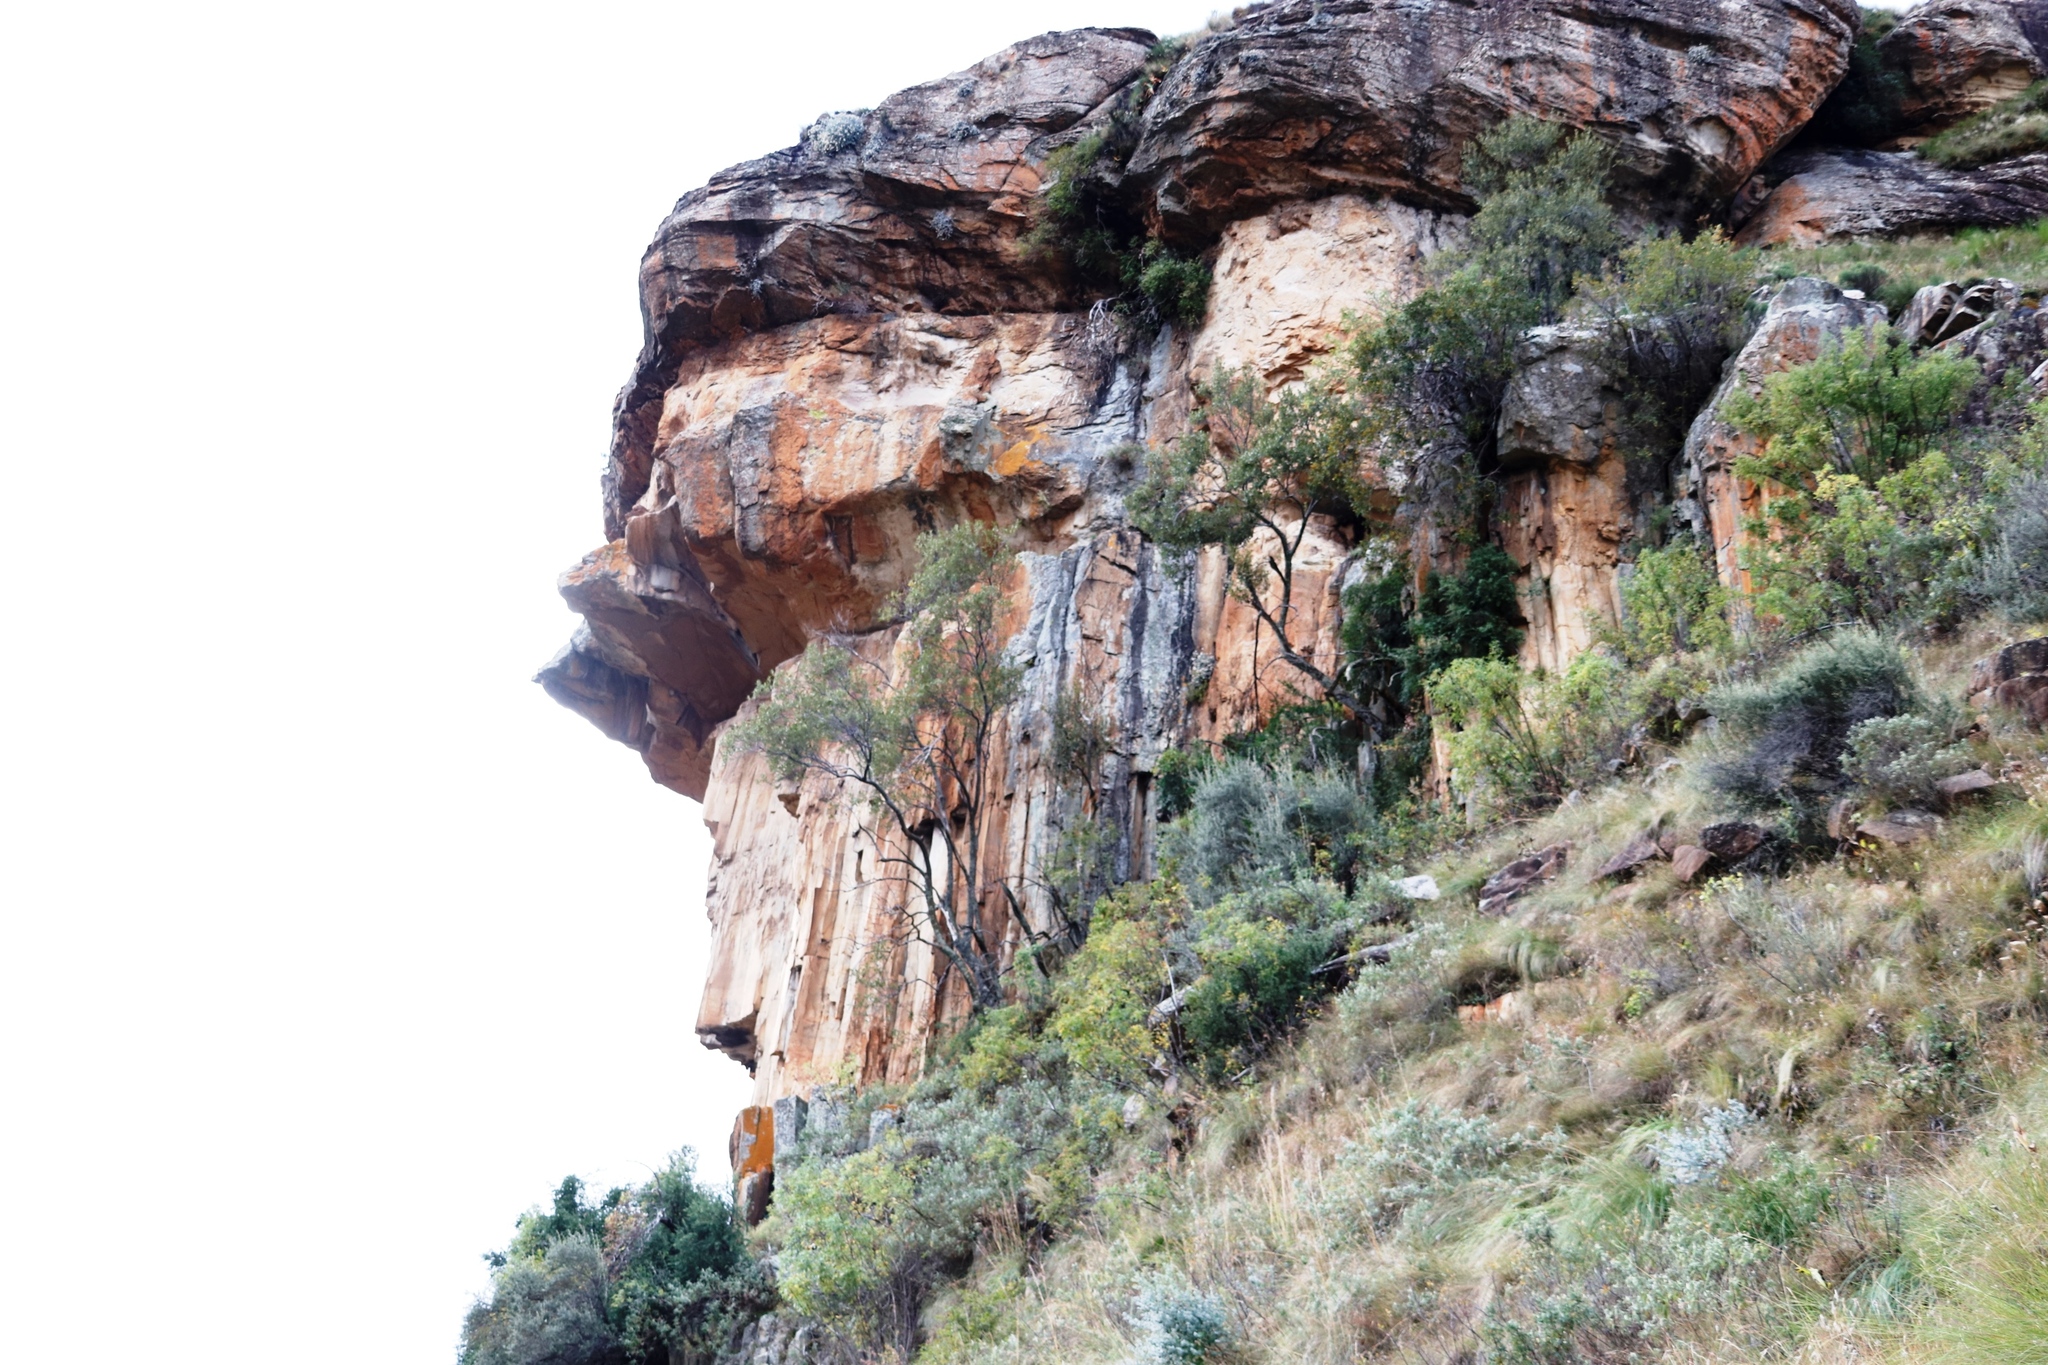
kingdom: Plantae
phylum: Tracheophyta
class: Magnoliopsida
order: Apiales
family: Apiaceae
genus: Heteromorpha
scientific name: Heteromorpha arborescens
